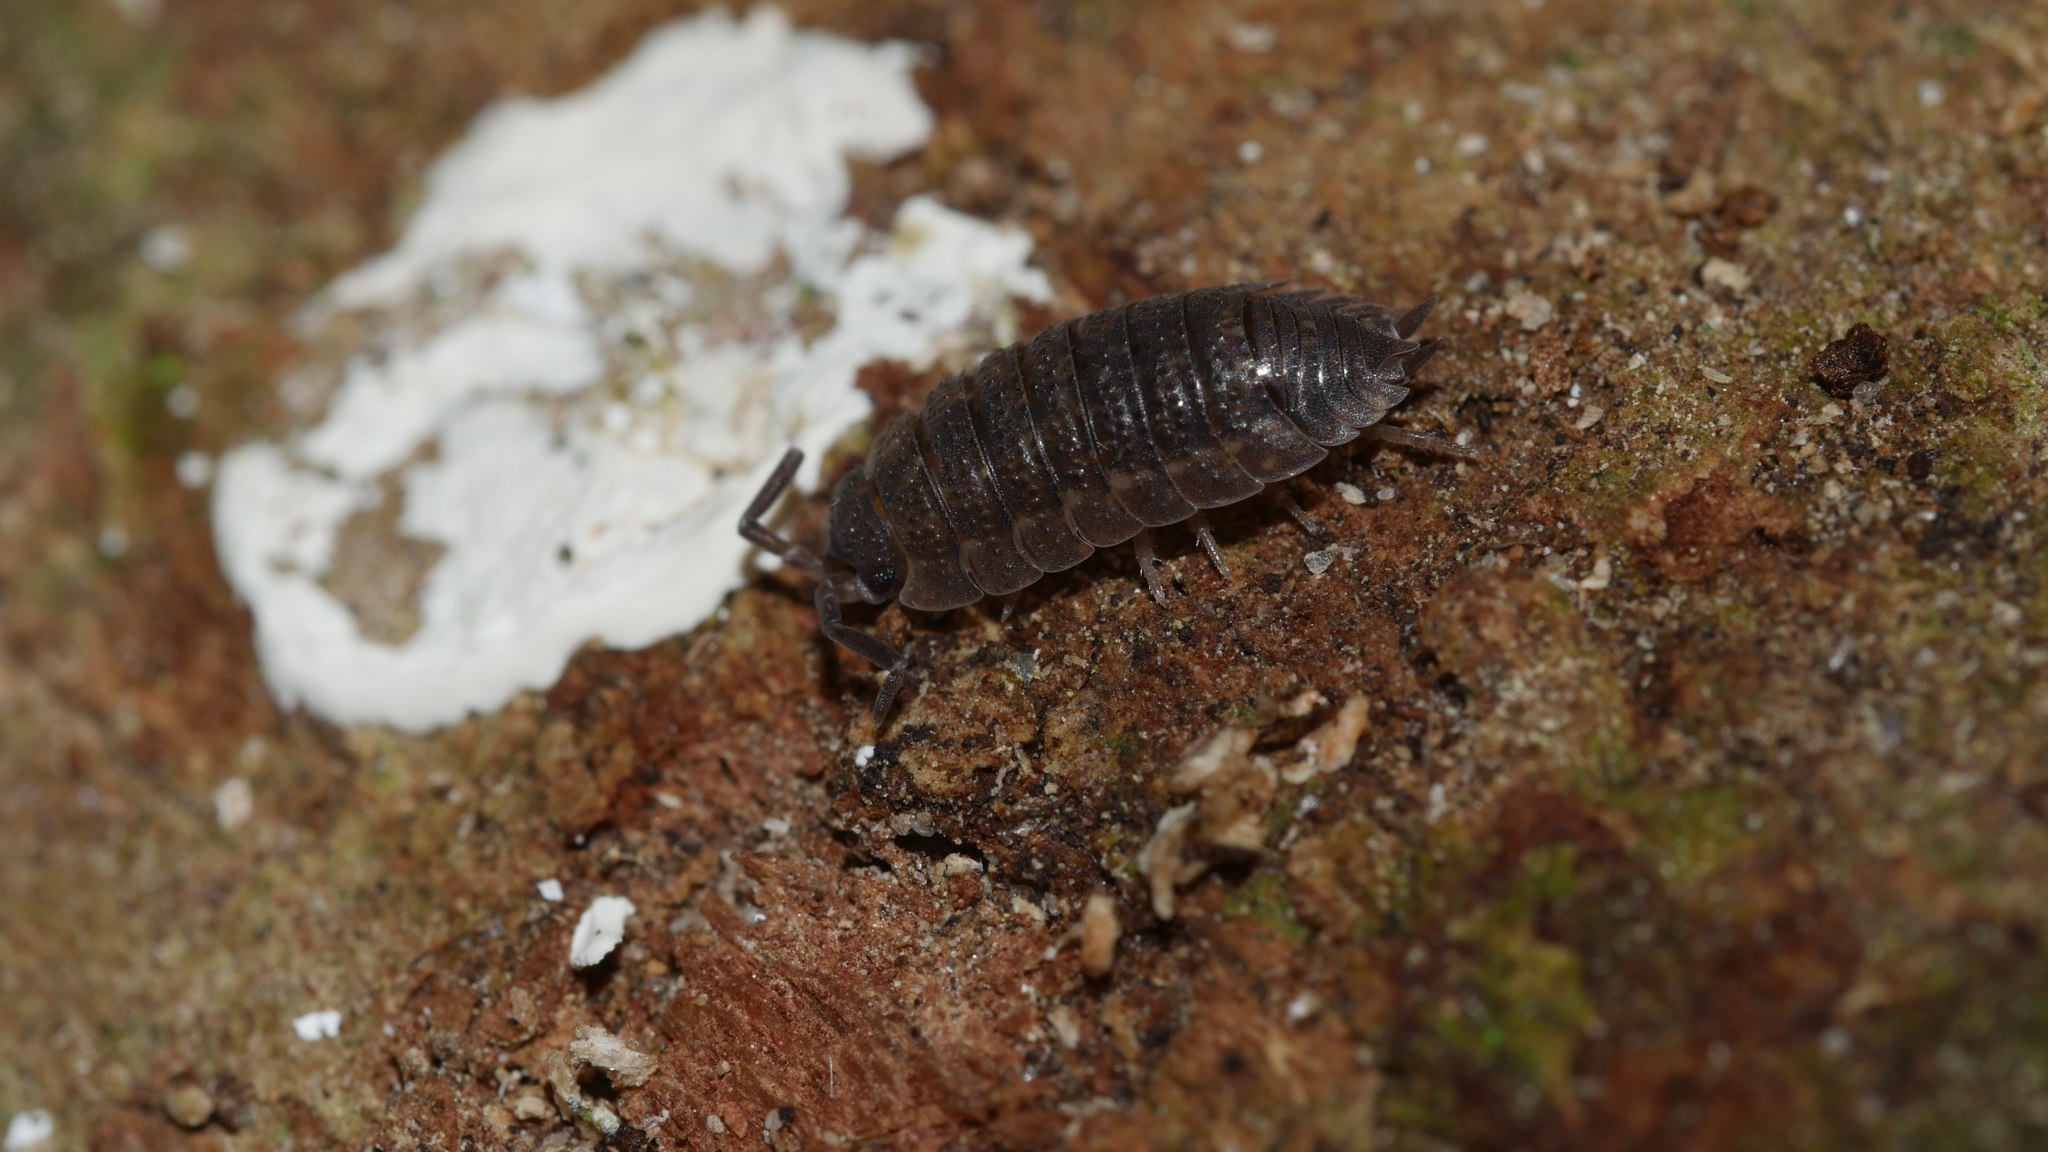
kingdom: Animalia
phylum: Arthropoda
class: Malacostraca
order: Isopoda
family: Porcellionidae
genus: Porcellio
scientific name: Porcellio scaber
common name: Common rough woodlouse
